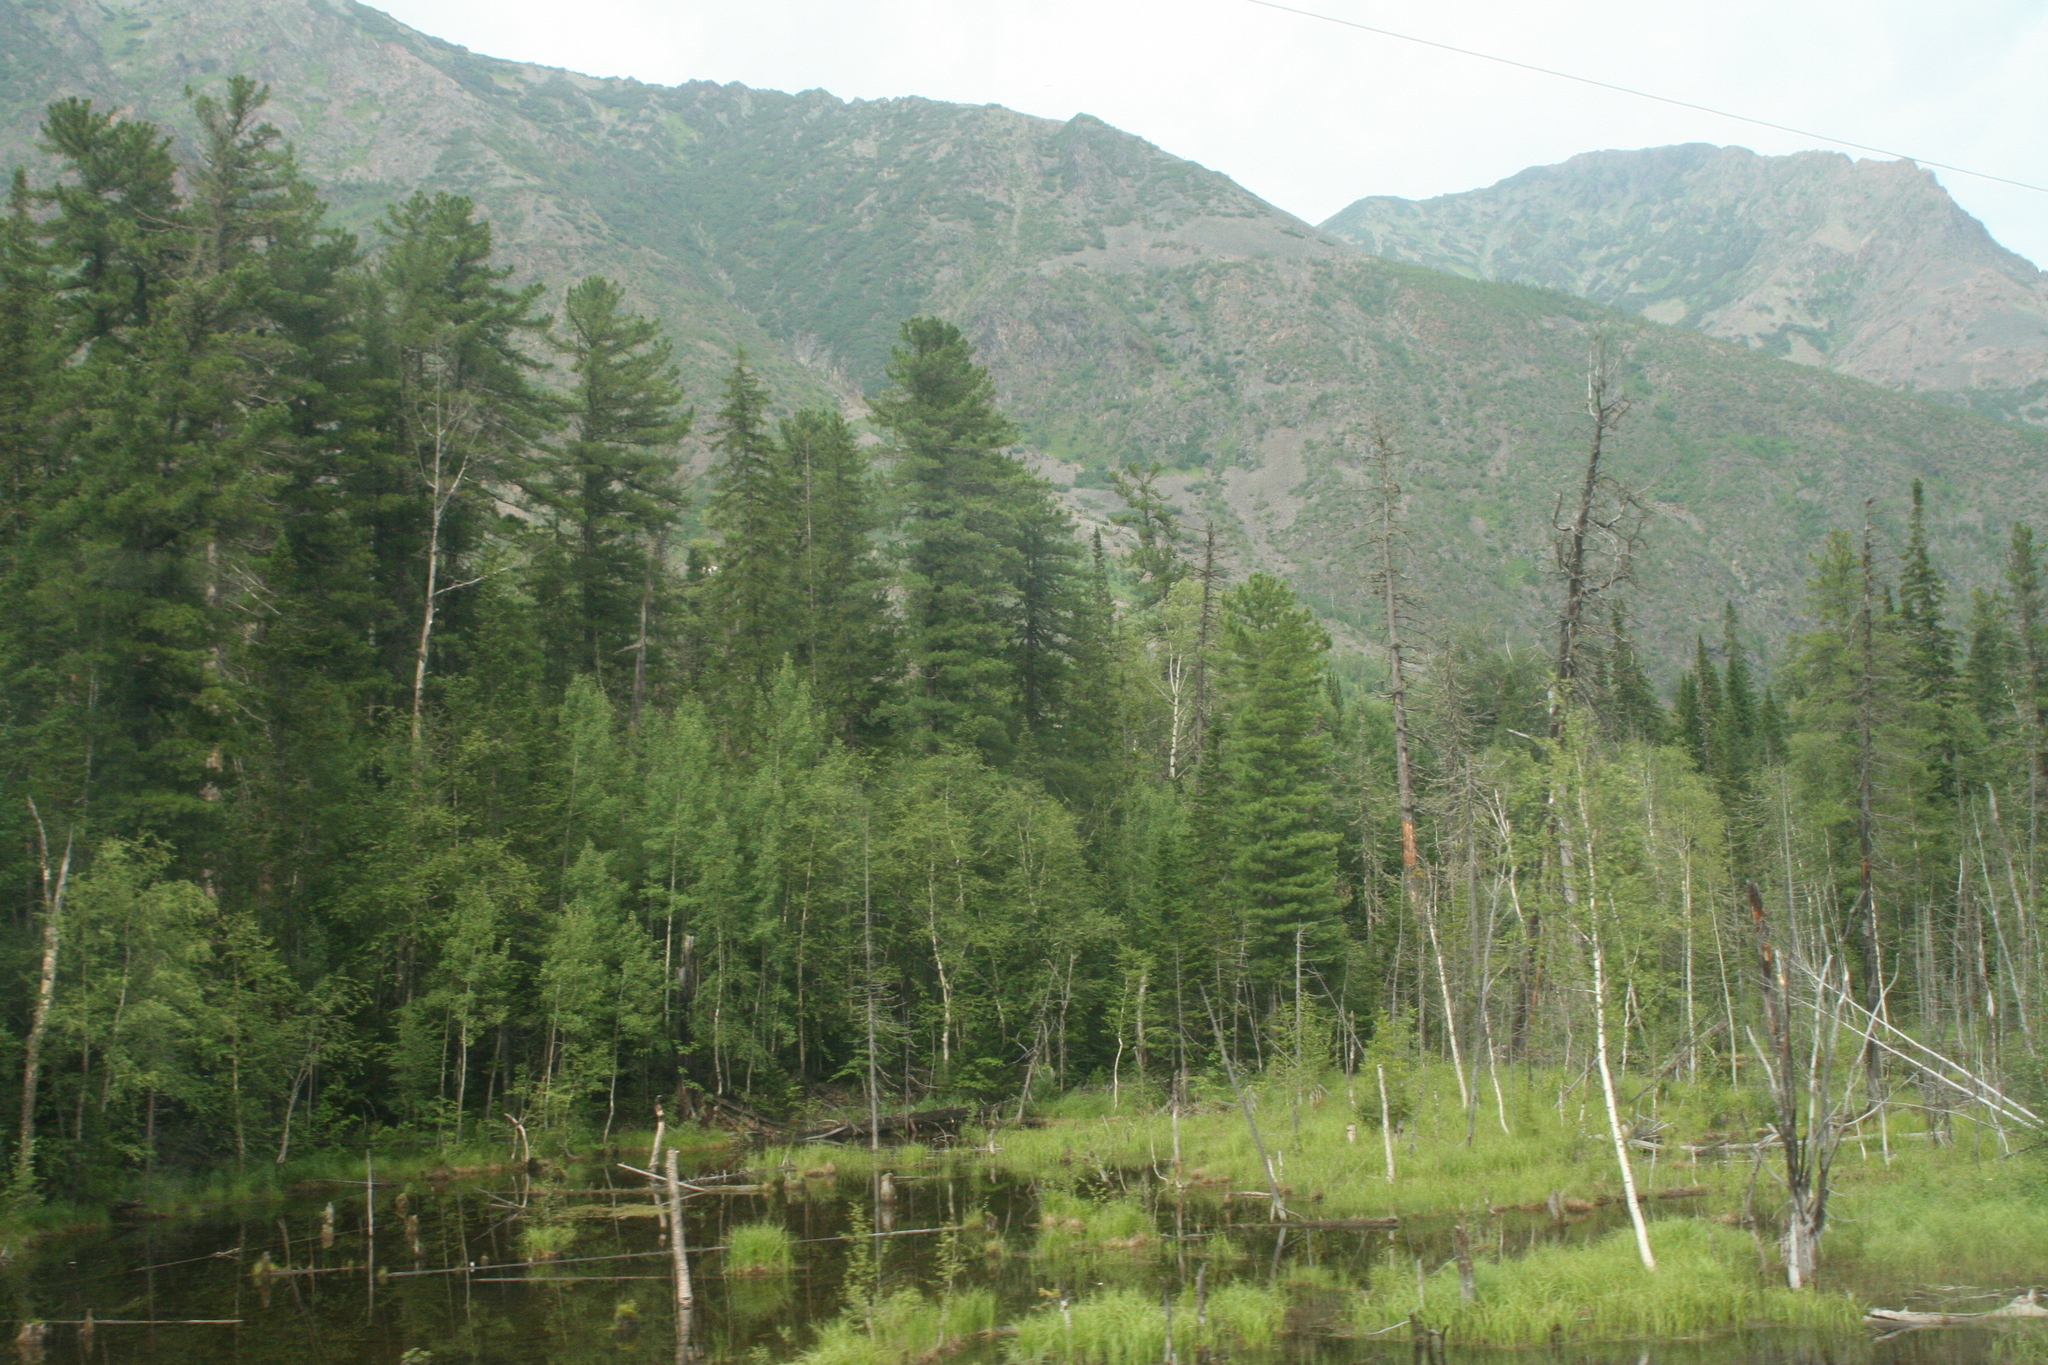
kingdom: Plantae
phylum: Tracheophyta
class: Pinopsida
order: Pinales
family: Pinaceae
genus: Pinus
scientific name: Pinus sibirica
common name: Siberian pine
